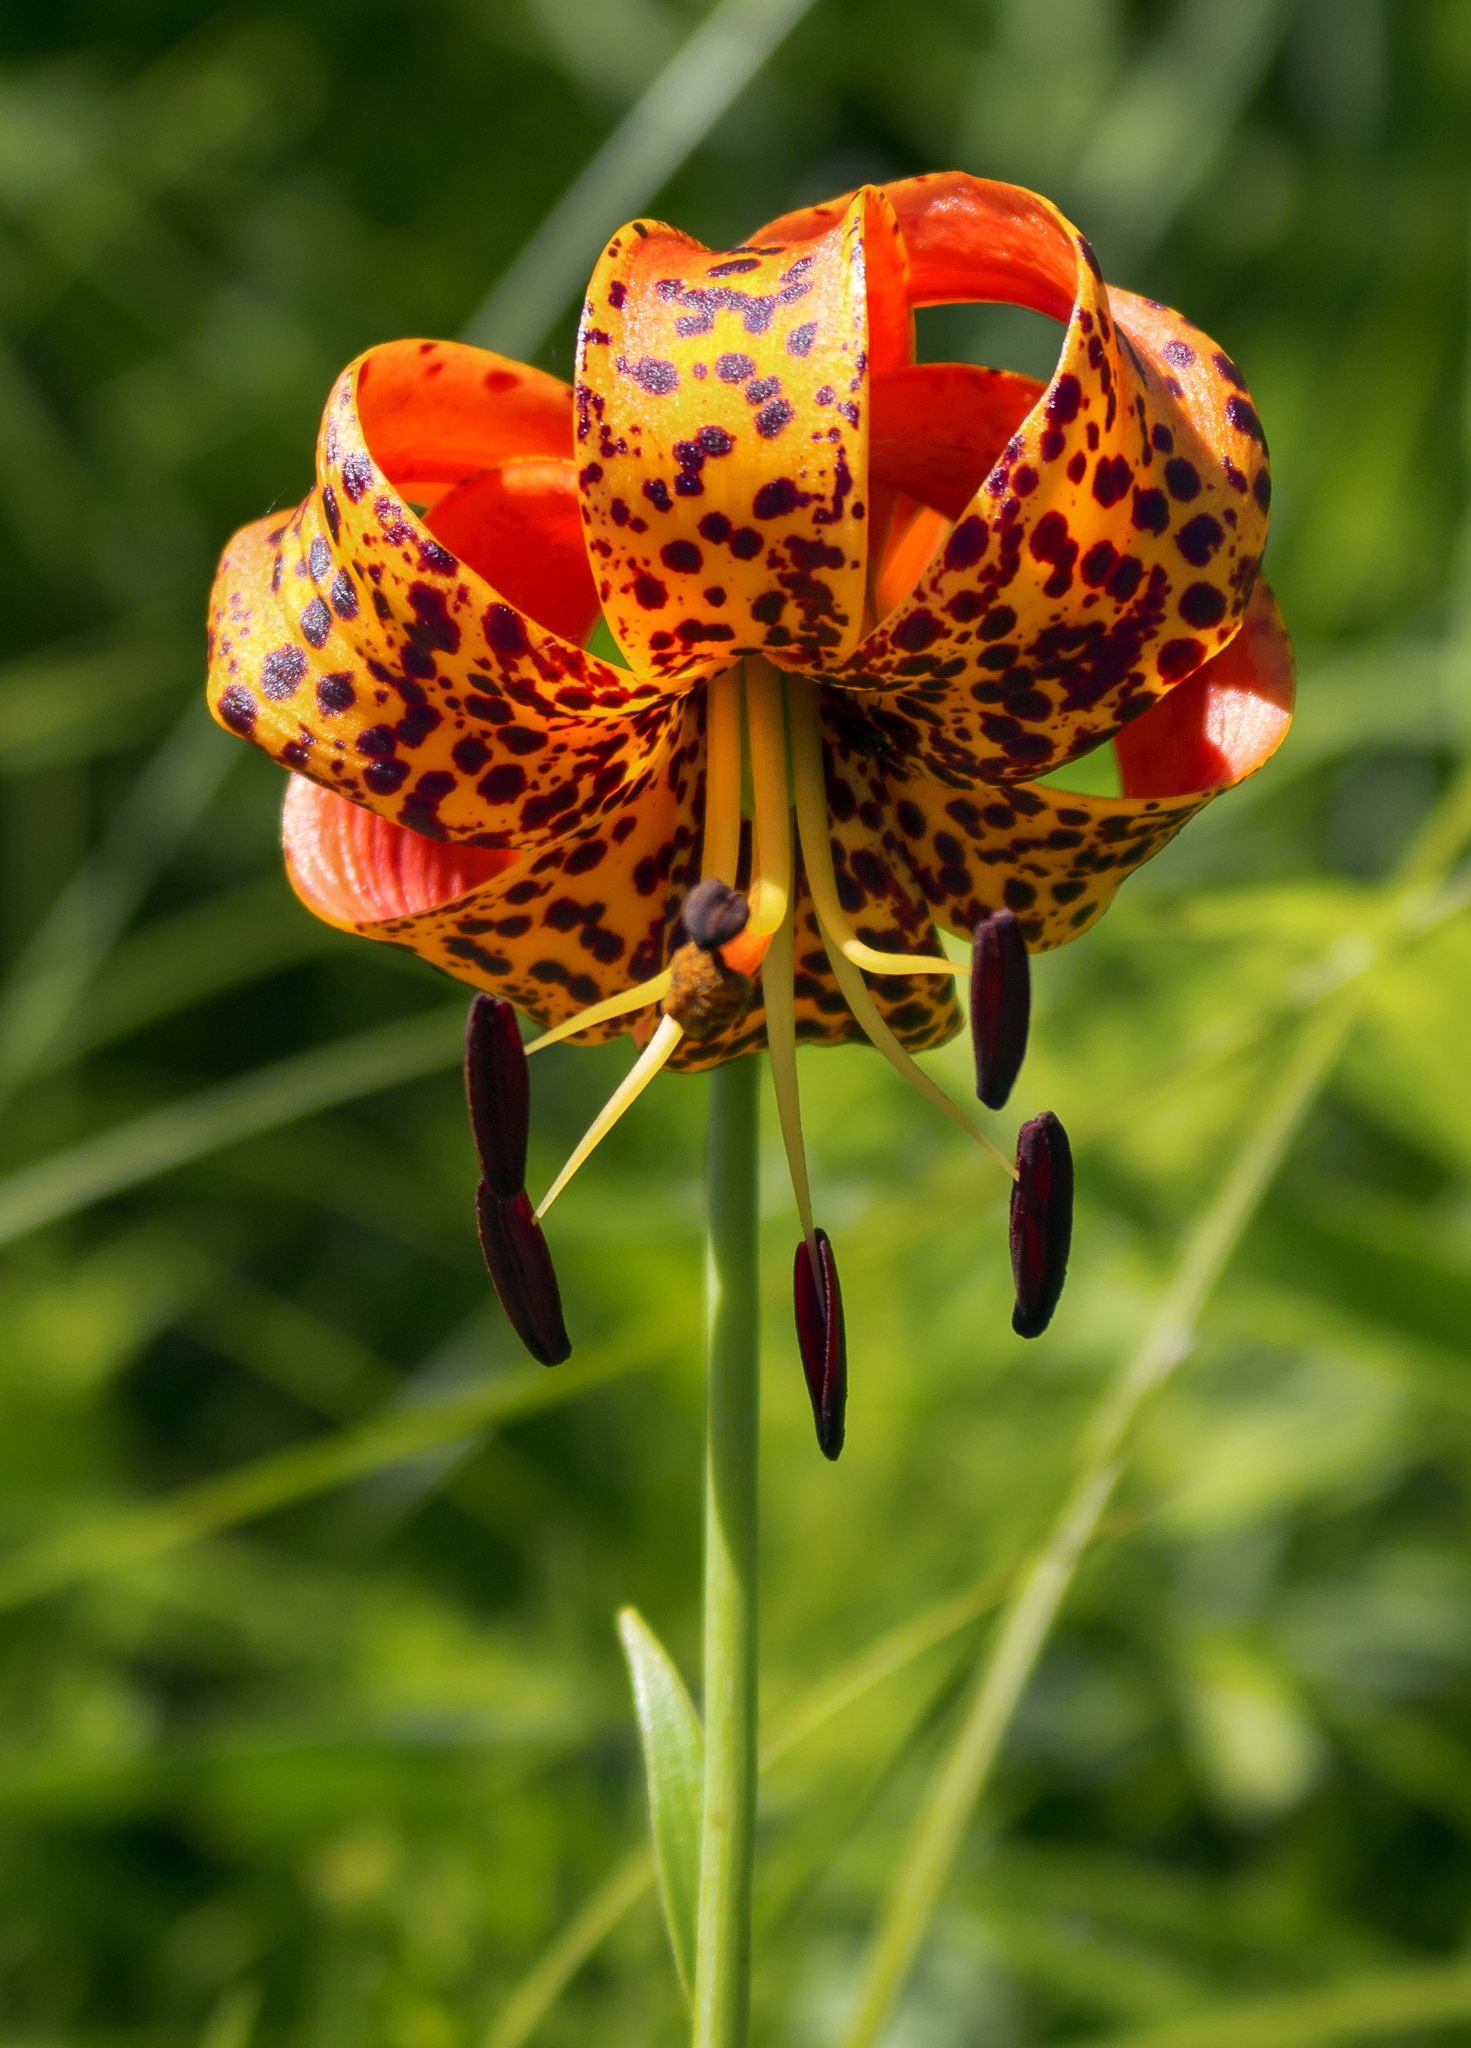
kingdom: Plantae
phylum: Tracheophyta
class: Liliopsida
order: Liliales
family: Liliaceae
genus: Lilium
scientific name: Lilium michiganense
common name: Michigan lily
